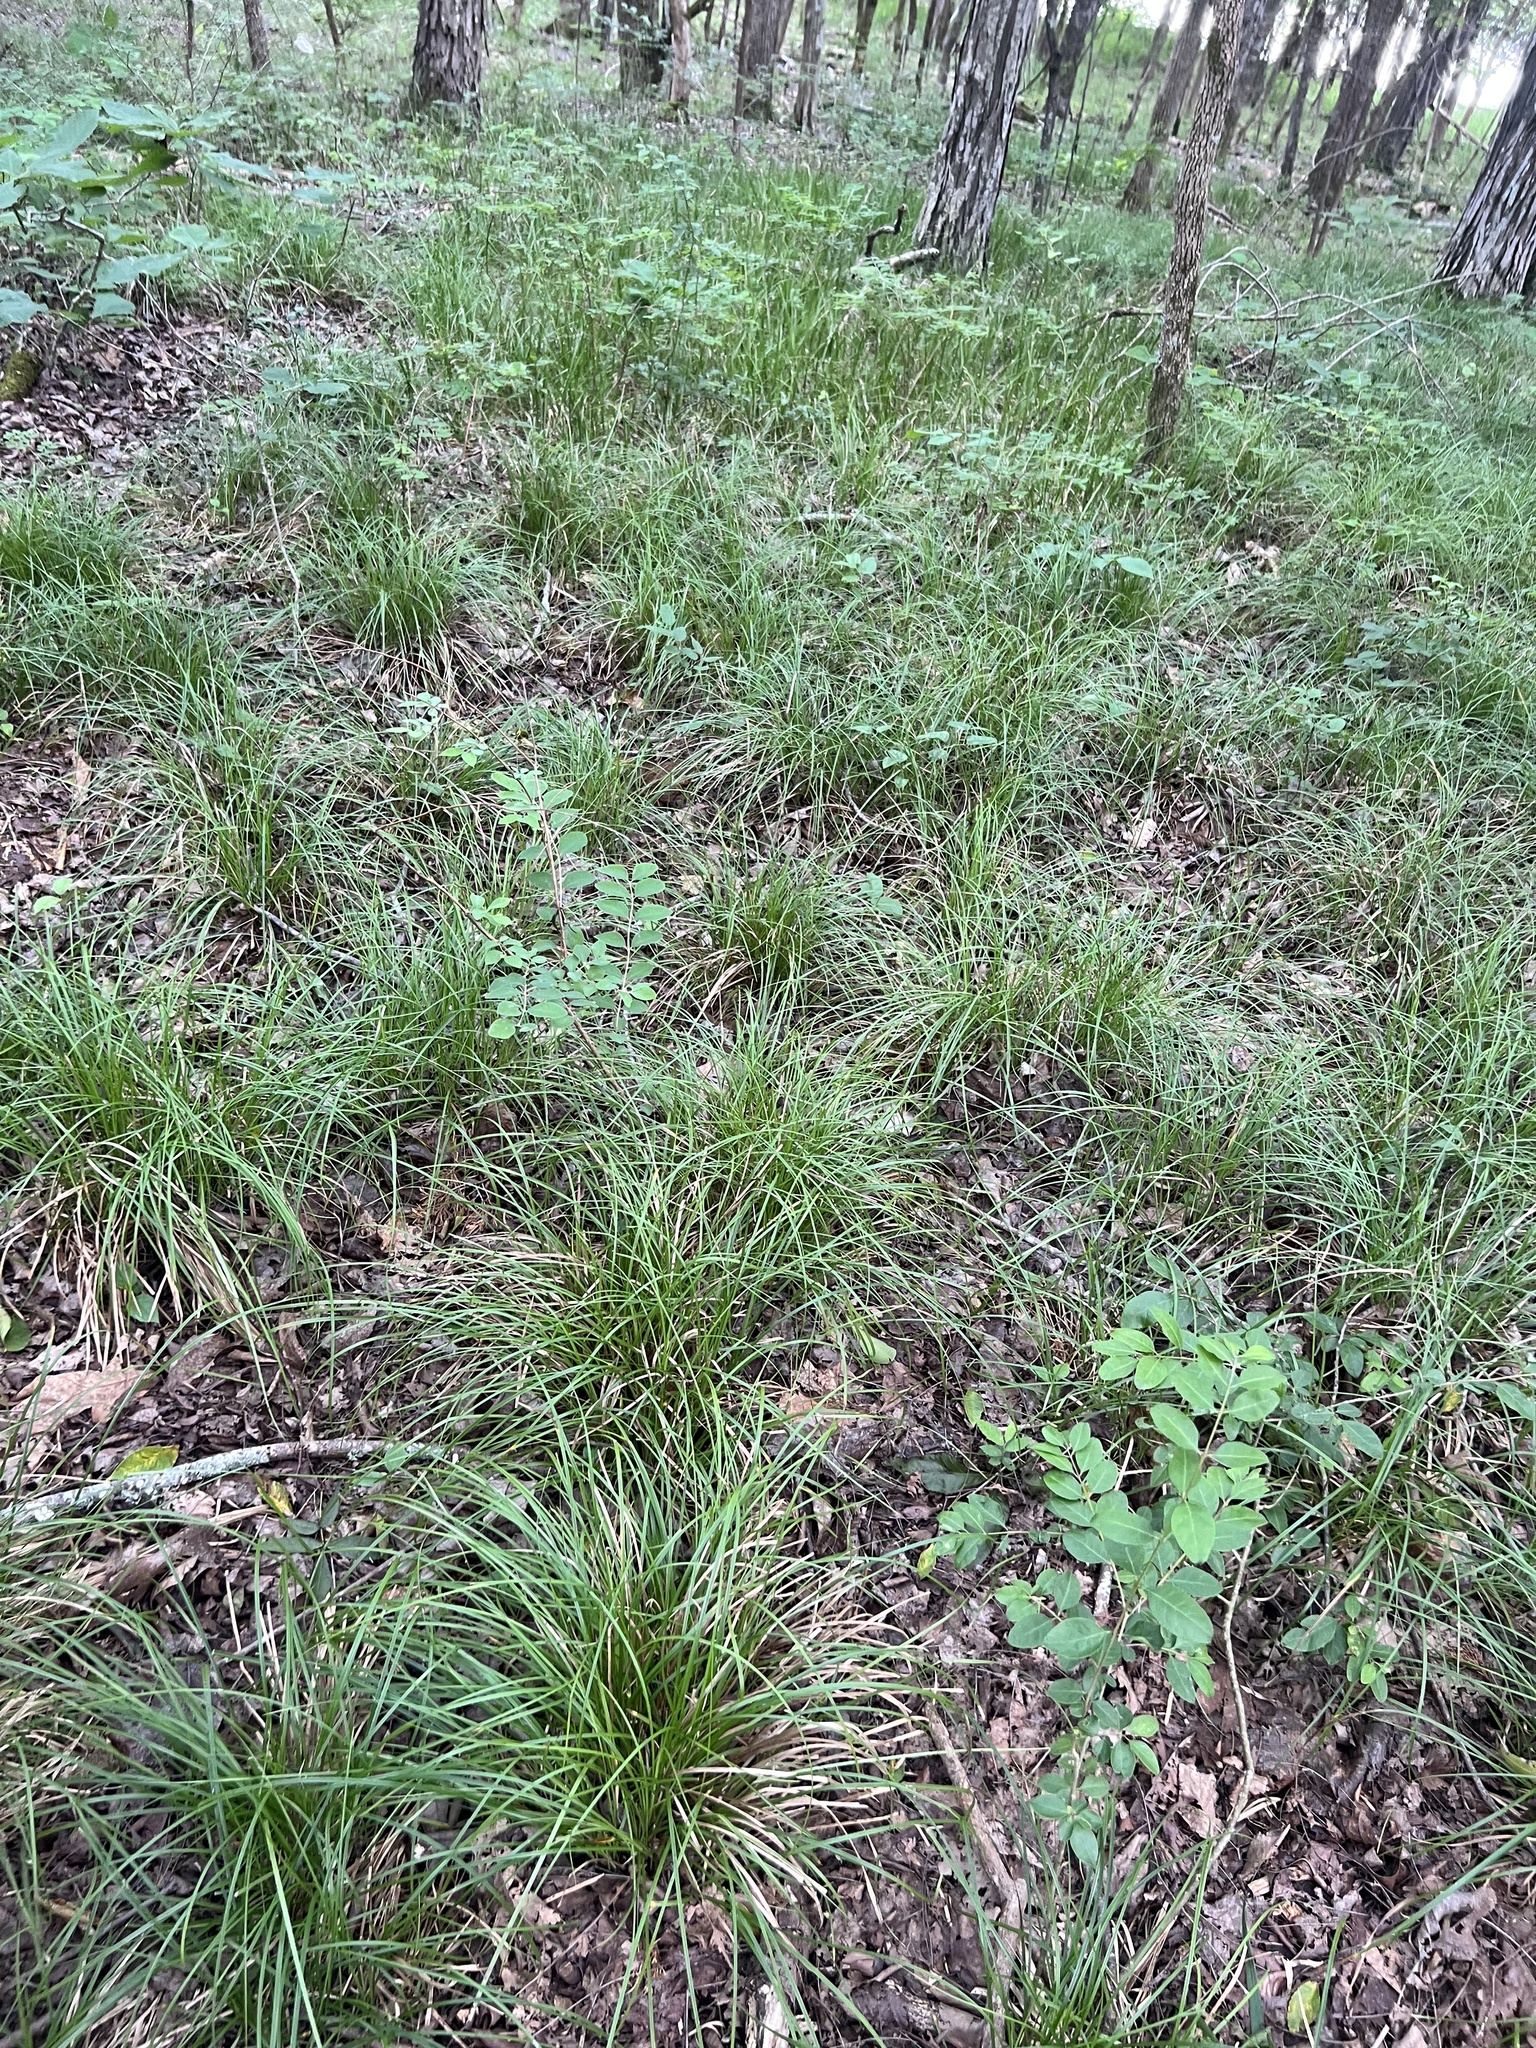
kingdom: Plantae
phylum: Tracheophyta
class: Liliopsida
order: Poales
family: Cyperaceae
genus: Carex
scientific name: Carex basiantha
